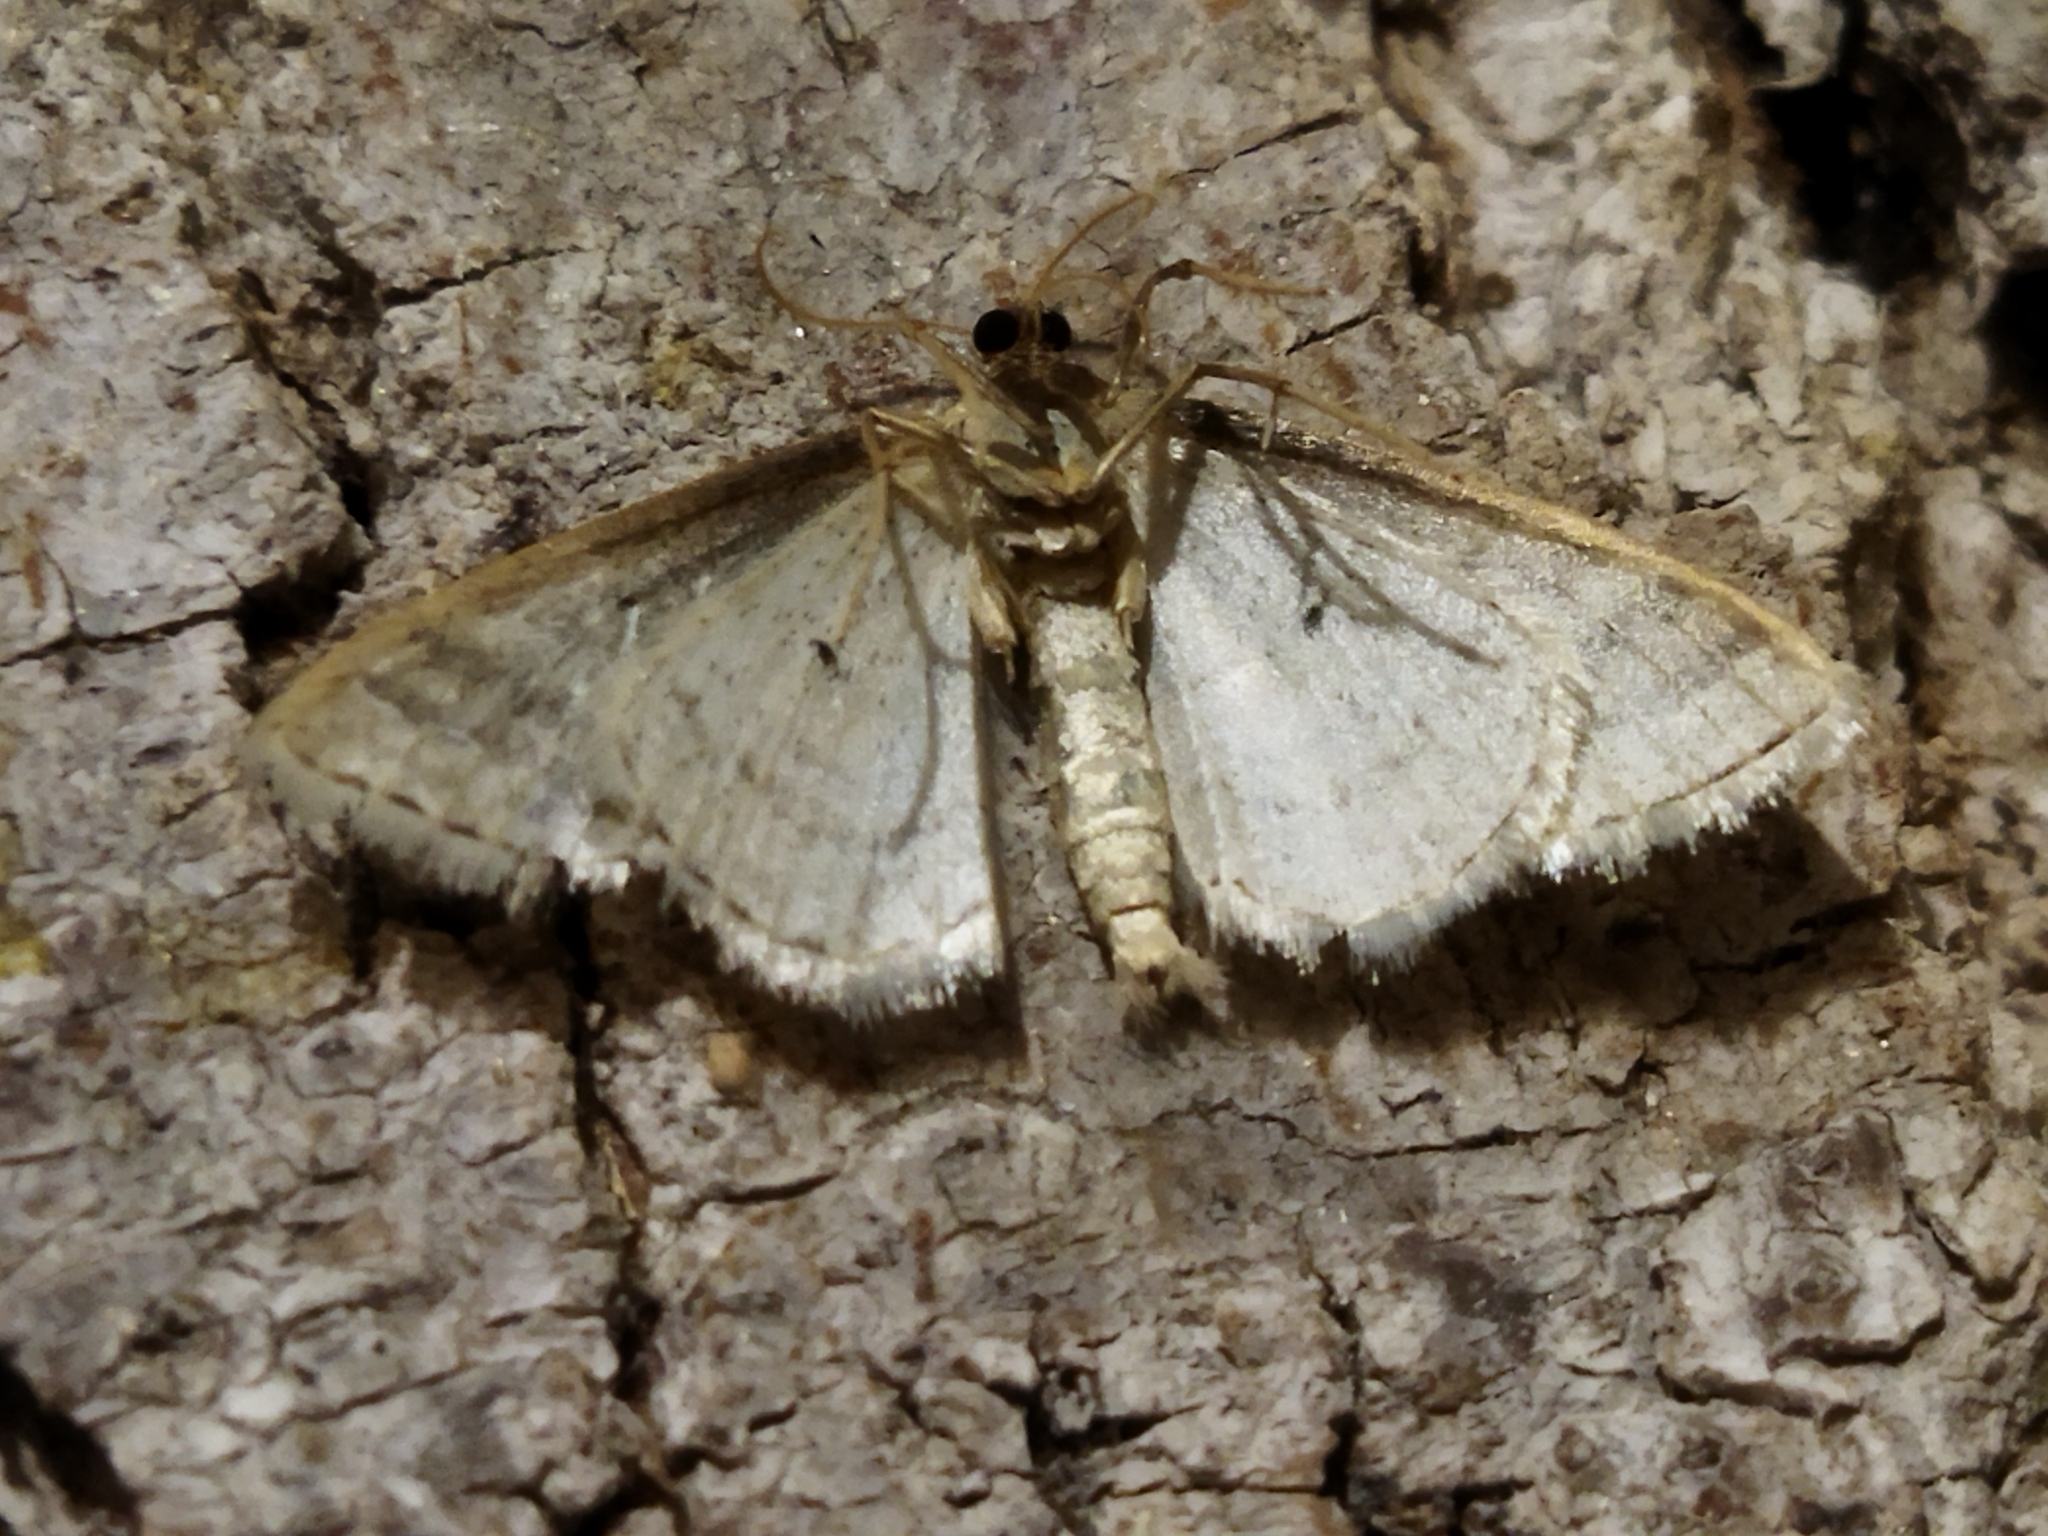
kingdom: Animalia
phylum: Arthropoda
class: Insecta
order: Lepidoptera
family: Geometridae
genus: Idaea
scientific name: Idaea subsericeata
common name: Satin wave
